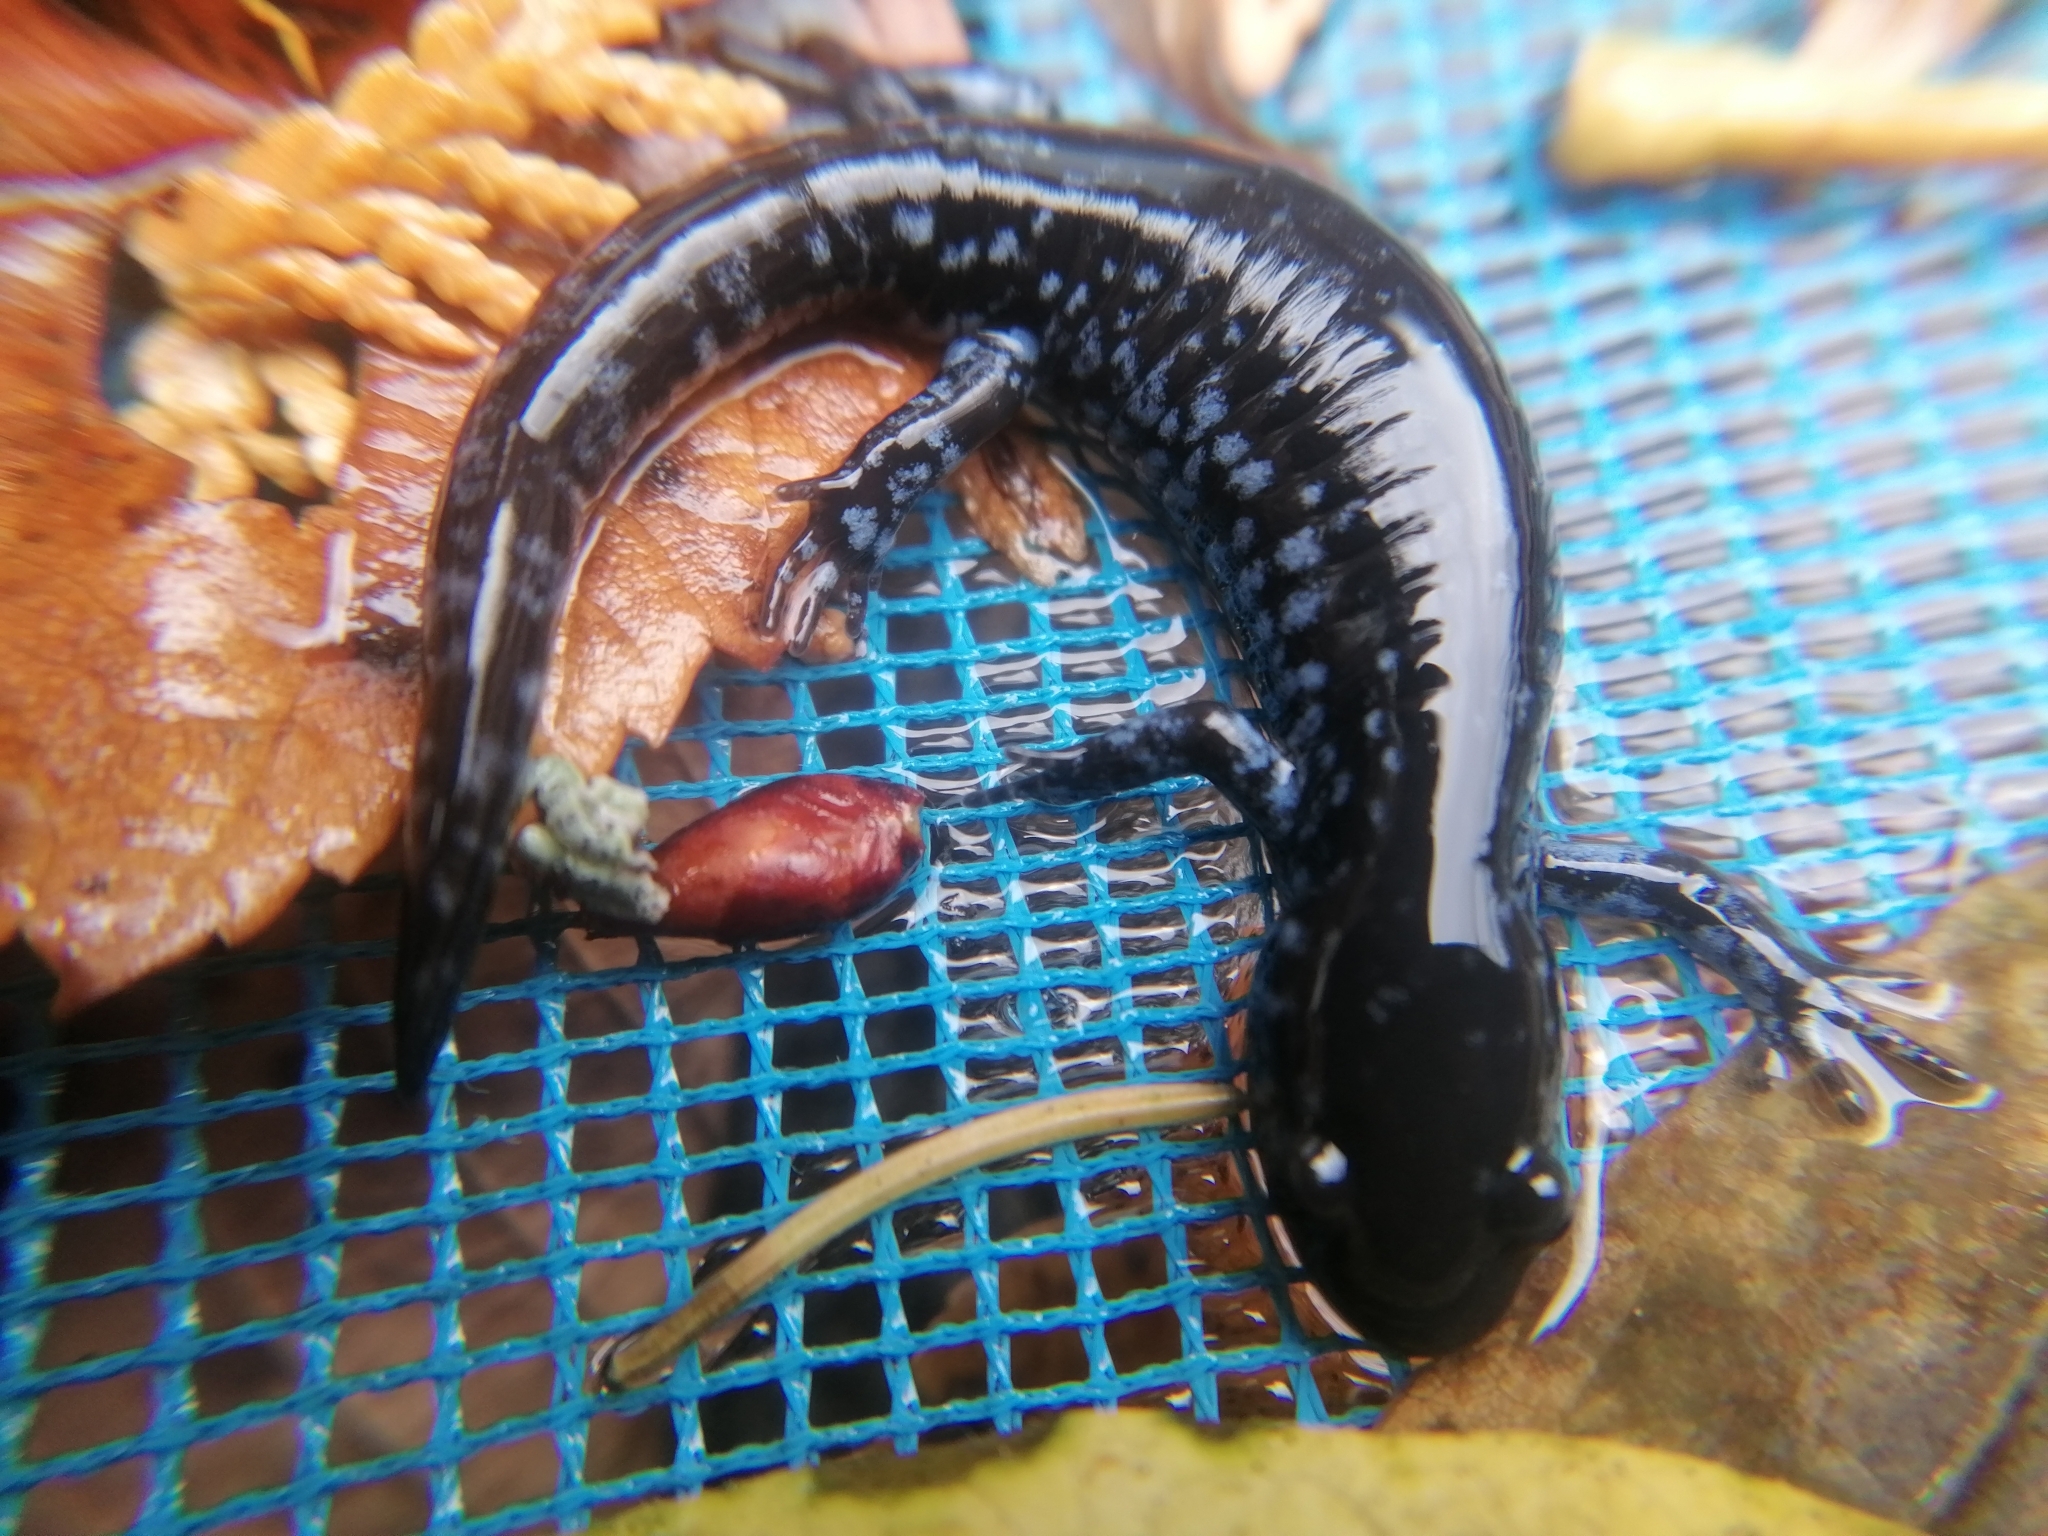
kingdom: Animalia
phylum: Chordata
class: Amphibia
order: Caudata
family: Ambystomatidae
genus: Ambystoma
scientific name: Ambystoma laterale
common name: Blue-spotted salamander
